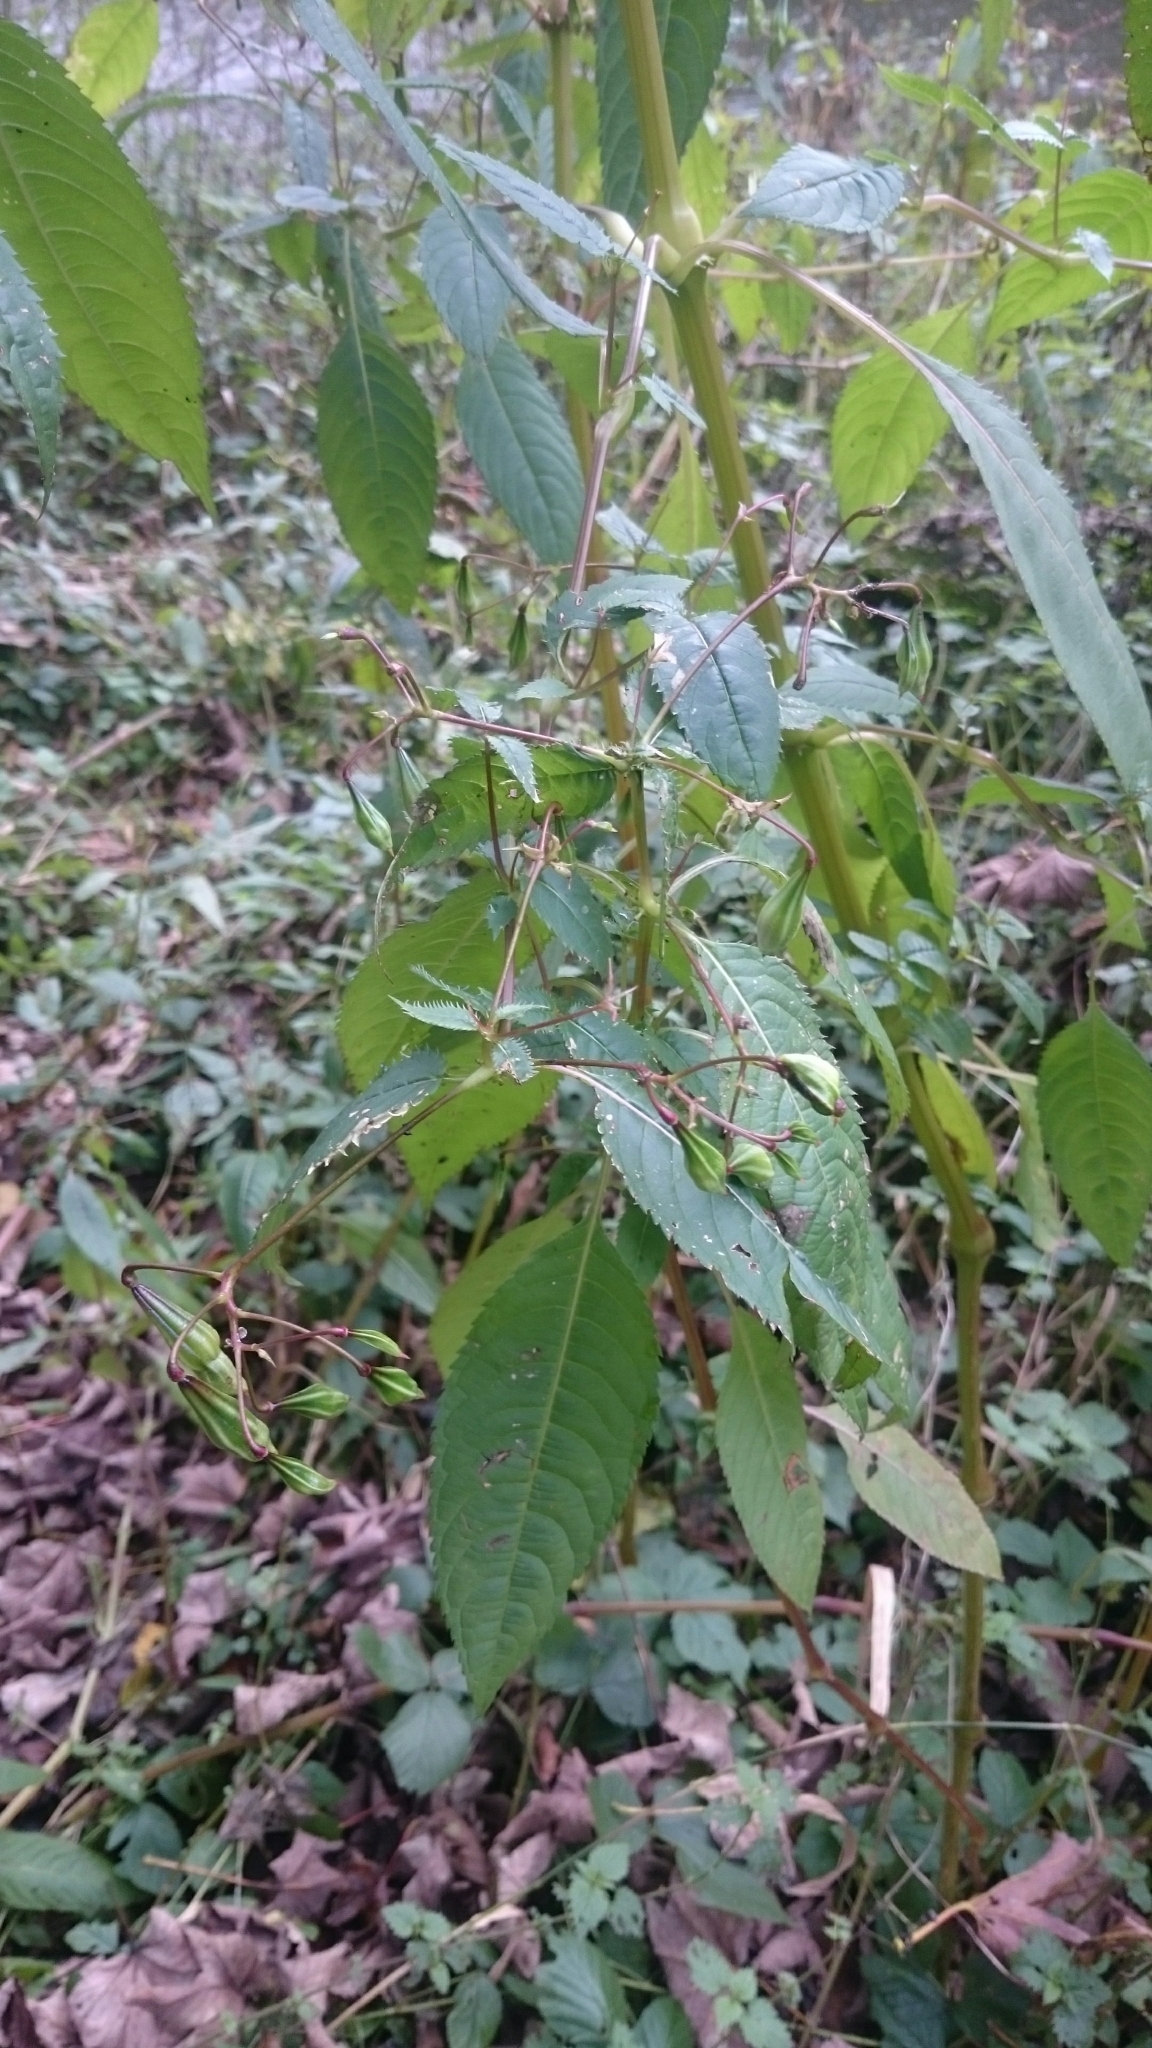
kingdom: Plantae
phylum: Tracheophyta
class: Magnoliopsida
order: Ericales
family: Balsaminaceae
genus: Impatiens
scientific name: Impatiens glandulifera
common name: Himalayan balsam
